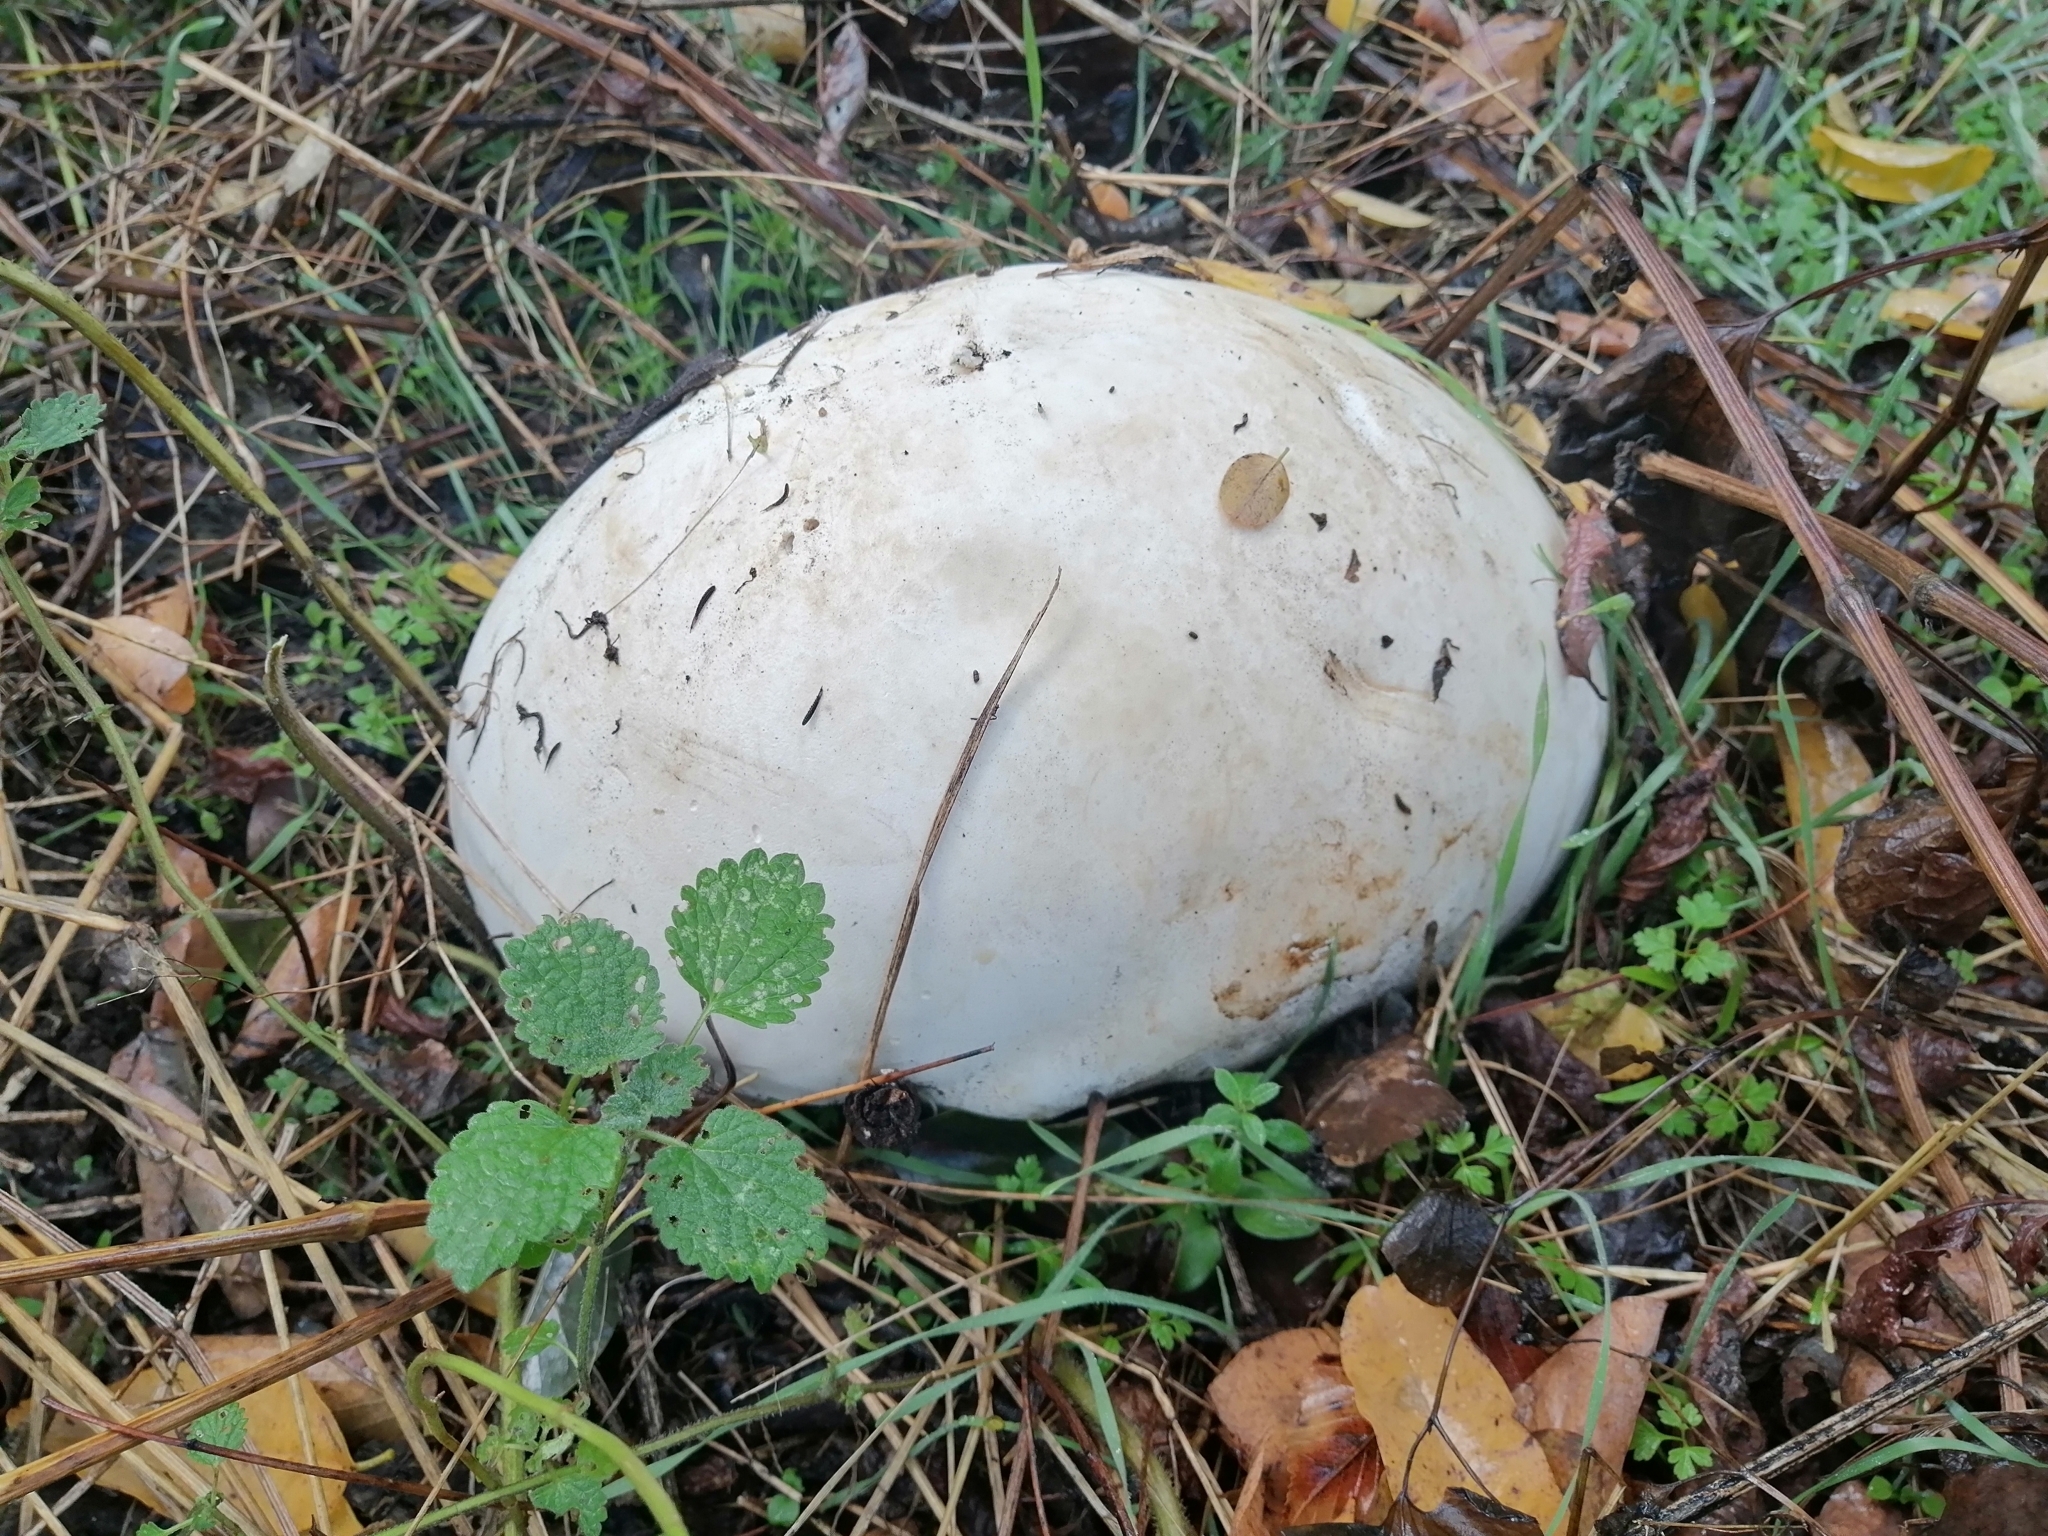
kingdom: Fungi
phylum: Basidiomycota
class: Agaricomycetes
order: Agaricales
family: Lycoperdaceae
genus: Calvatia
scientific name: Calvatia gigantea
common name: Giant puffball
